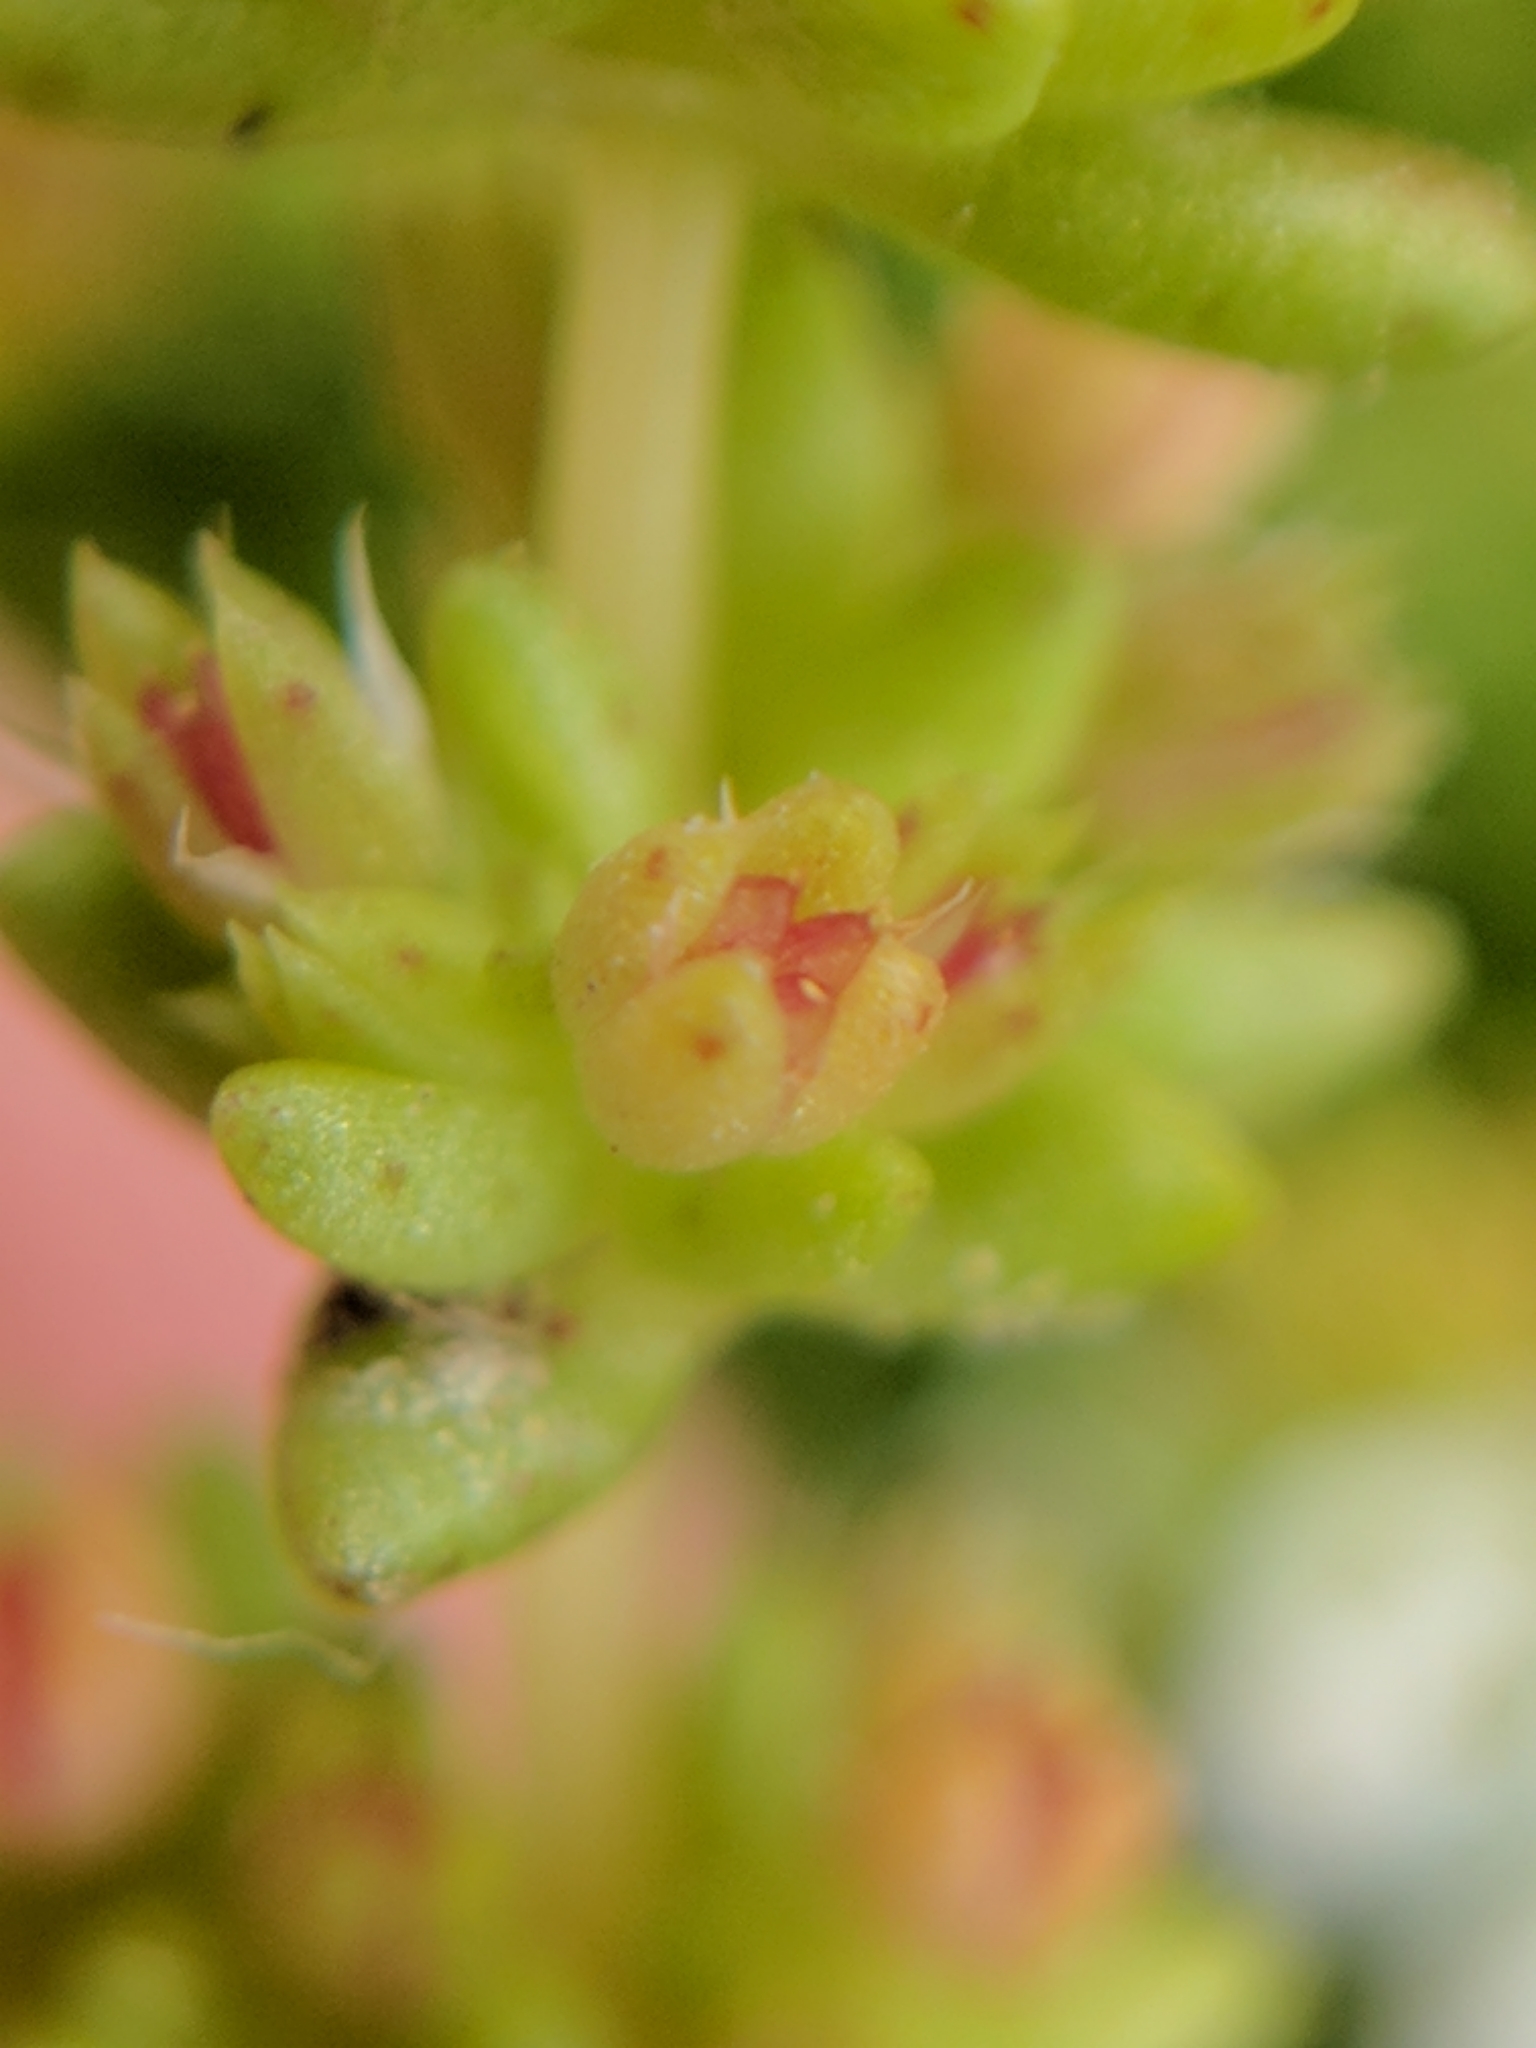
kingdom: Plantae
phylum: Tracheophyta
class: Magnoliopsida
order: Saxifragales
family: Crassulaceae
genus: Crassula
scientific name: Crassula connata
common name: Erect pygmyweed
